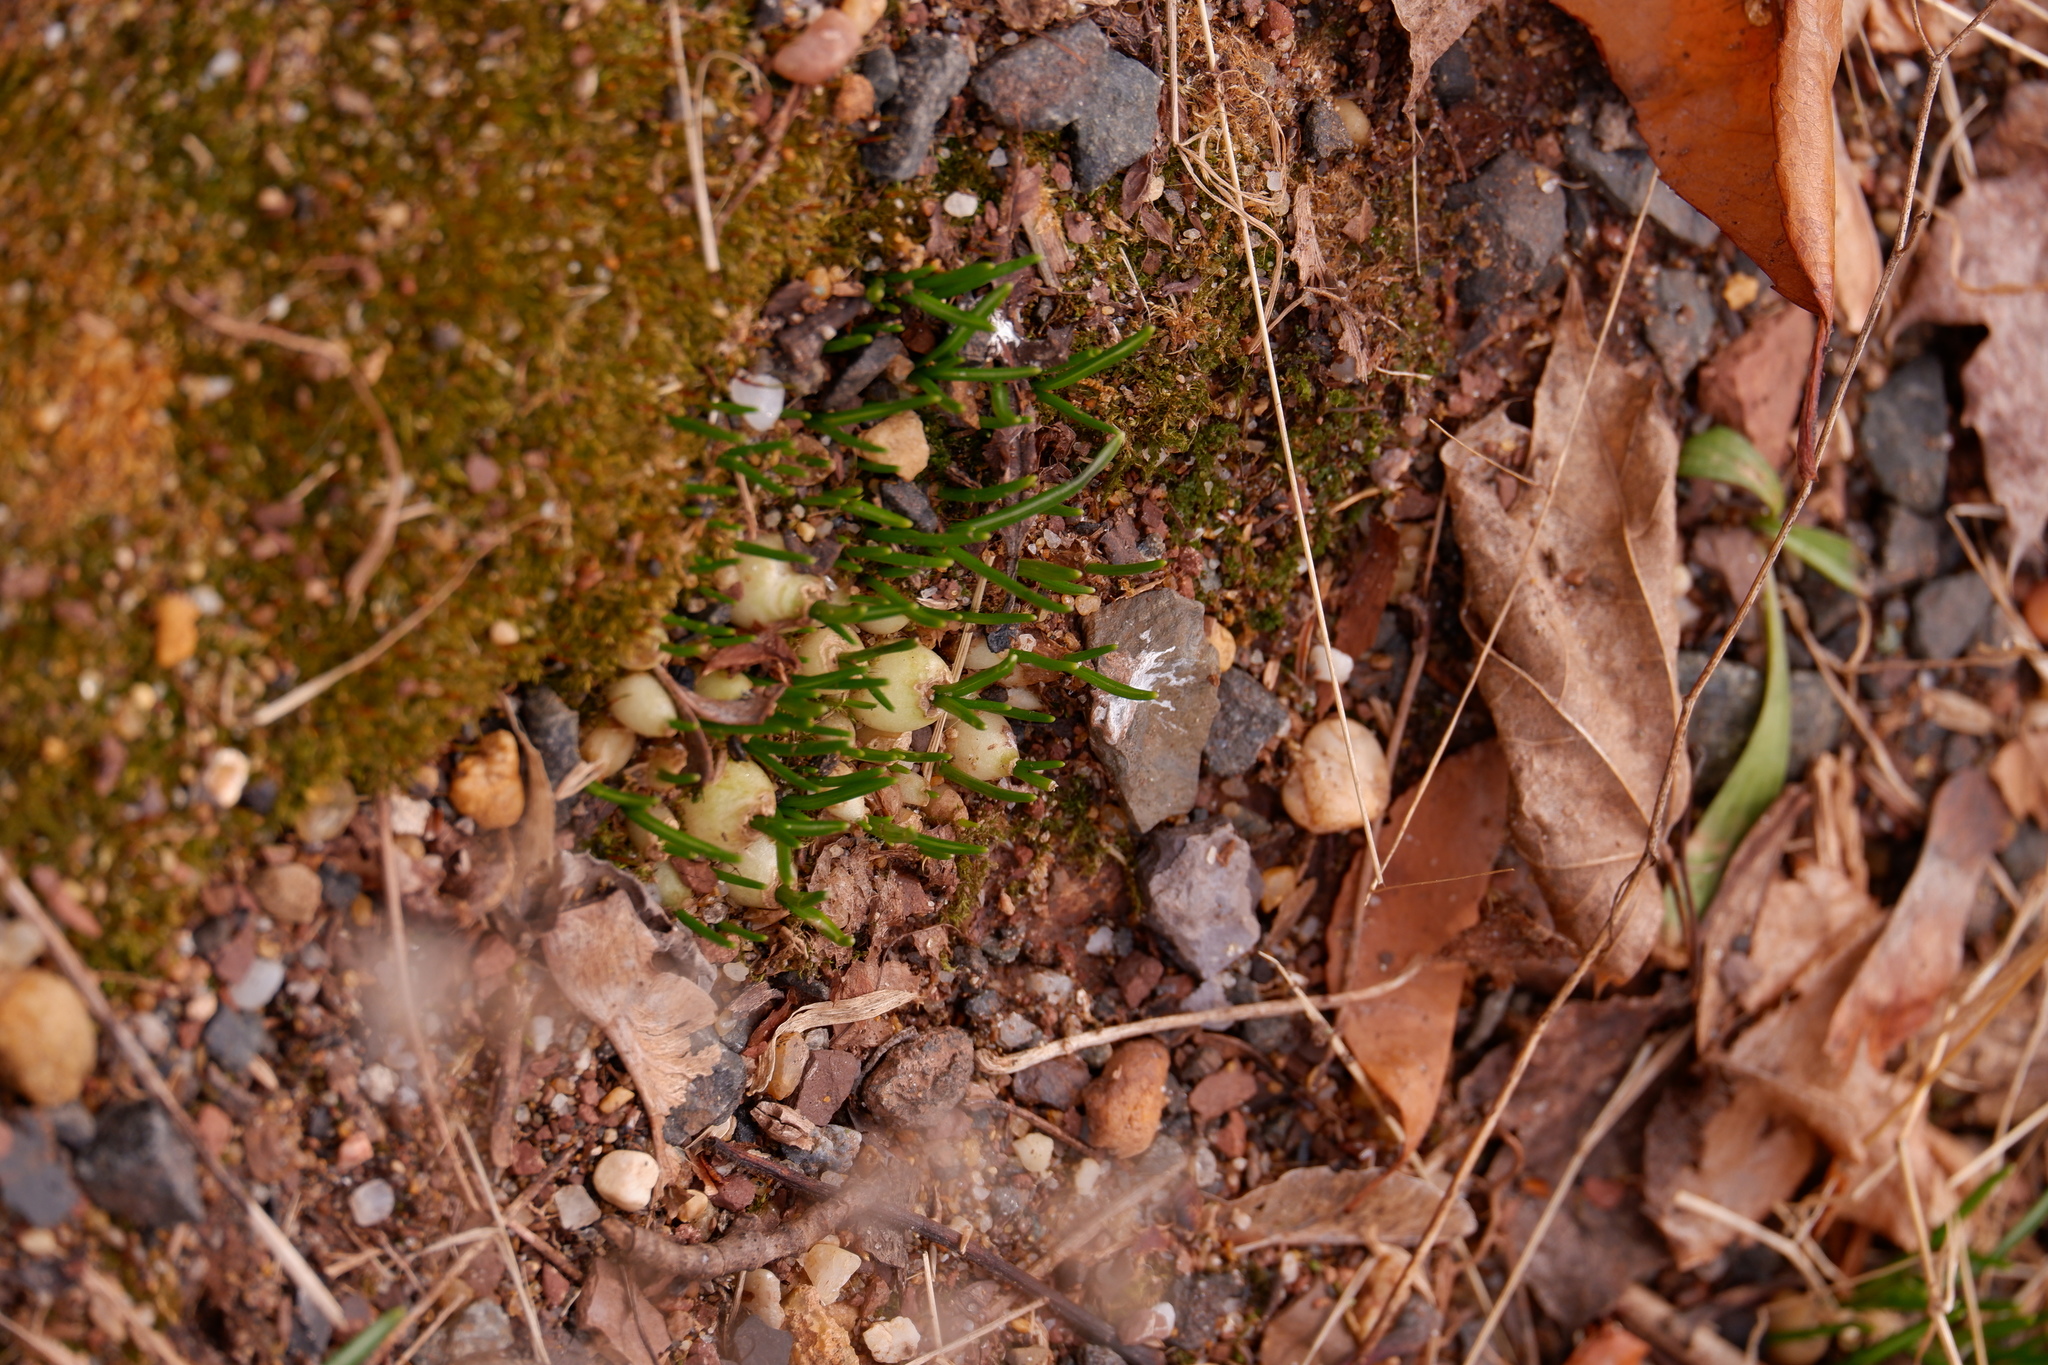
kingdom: Plantae
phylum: Tracheophyta
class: Liliopsida
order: Asparagales
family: Asparagaceae
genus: Ornithogalum
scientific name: Ornithogalum umbellatum
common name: Garden star-of-bethlehem
